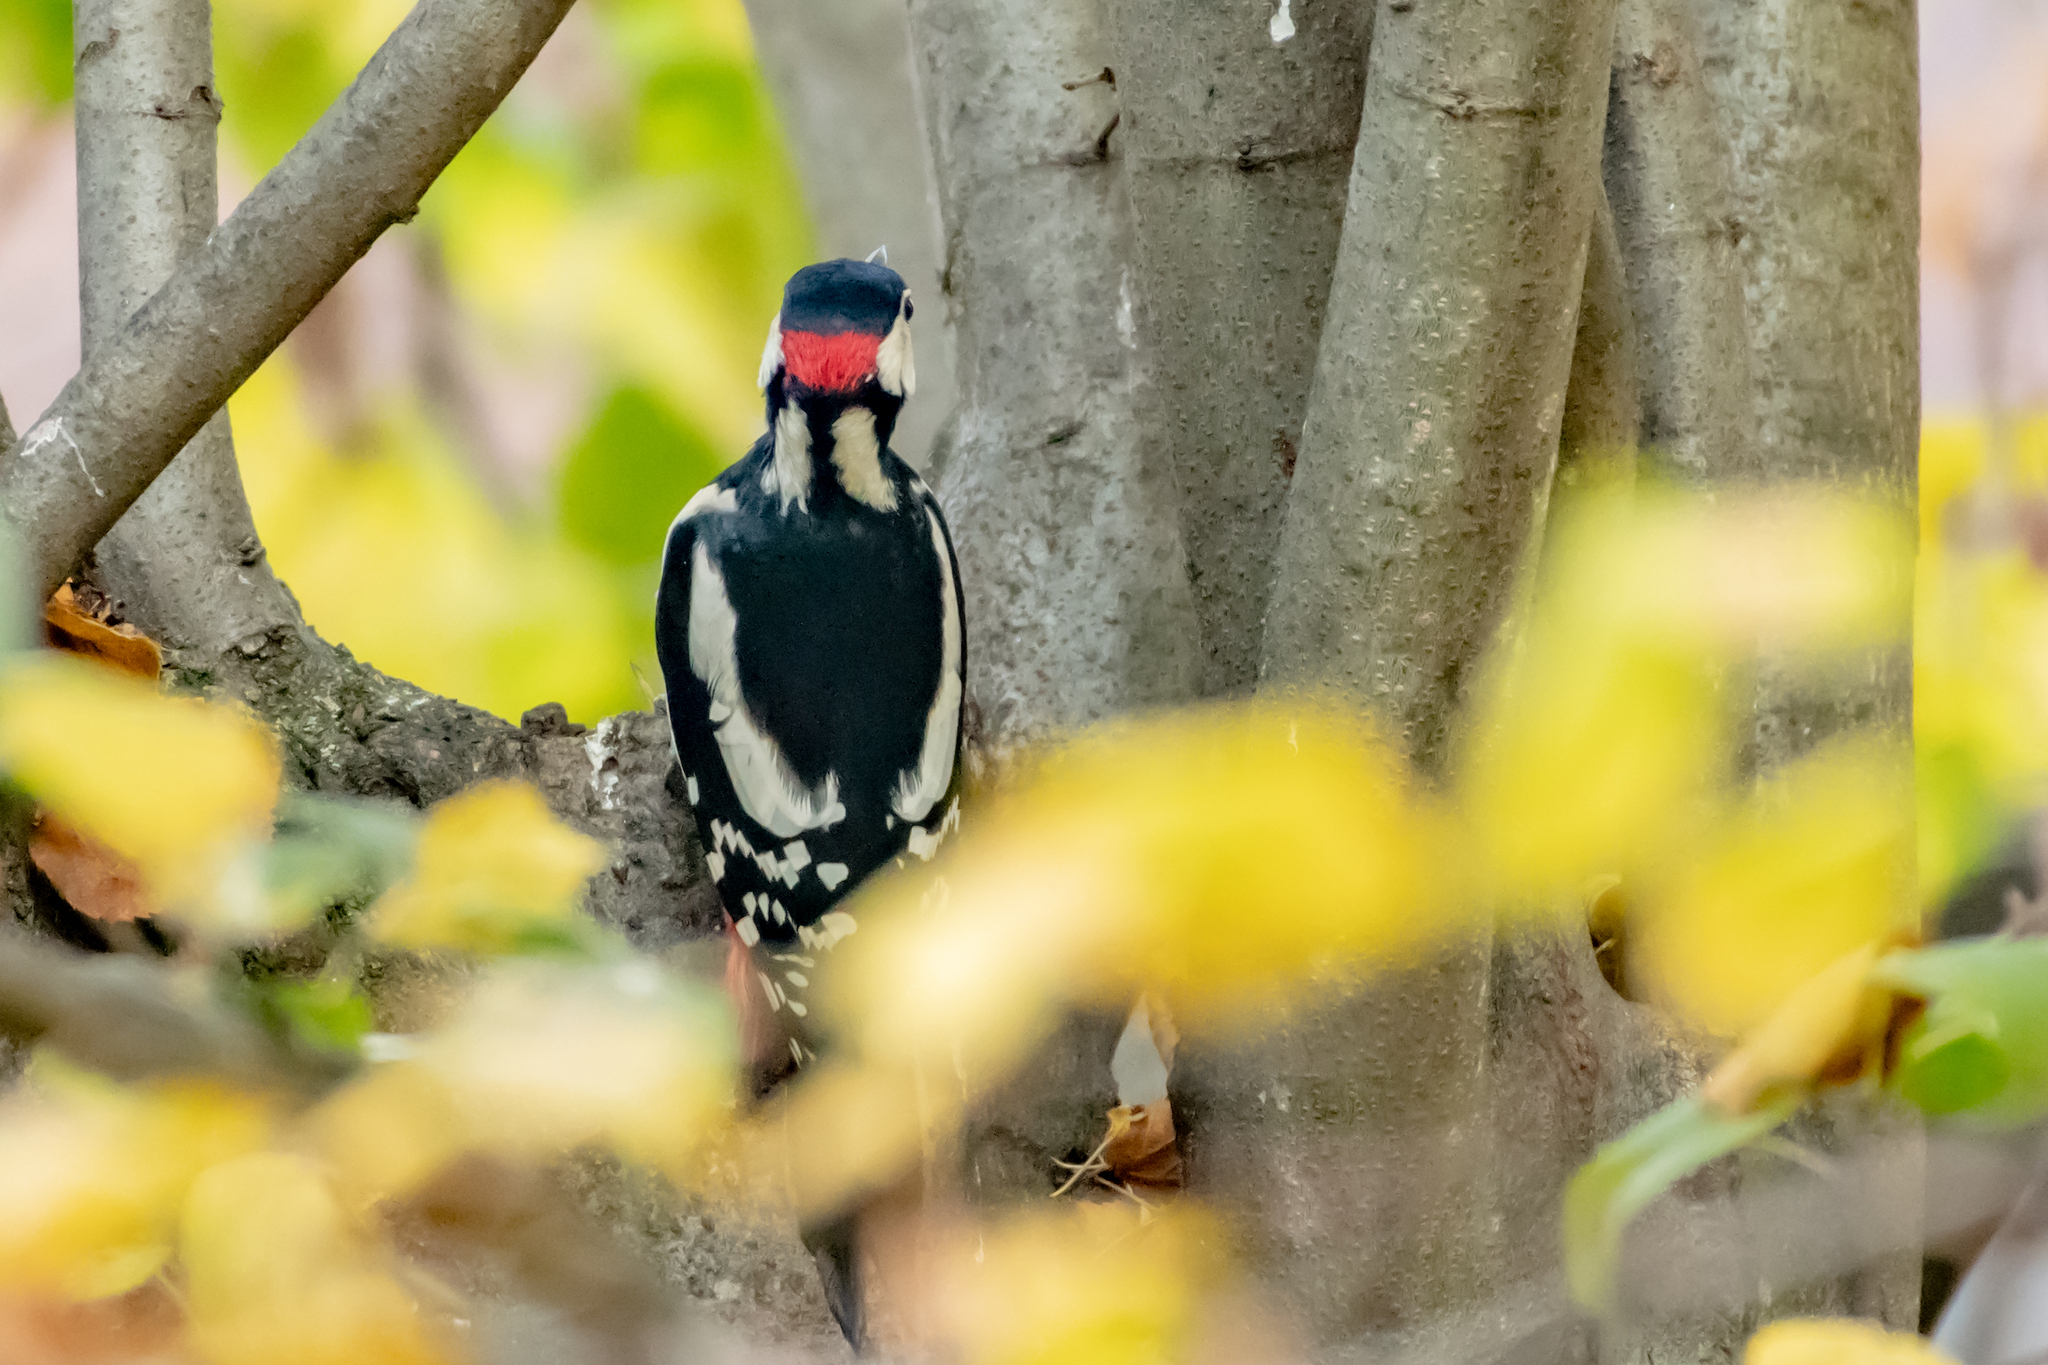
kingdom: Animalia
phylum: Chordata
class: Aves
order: Piciformes
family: Picidae
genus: Dendrocopos
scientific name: Dendrocopos major
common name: Great spotted woodpecker
